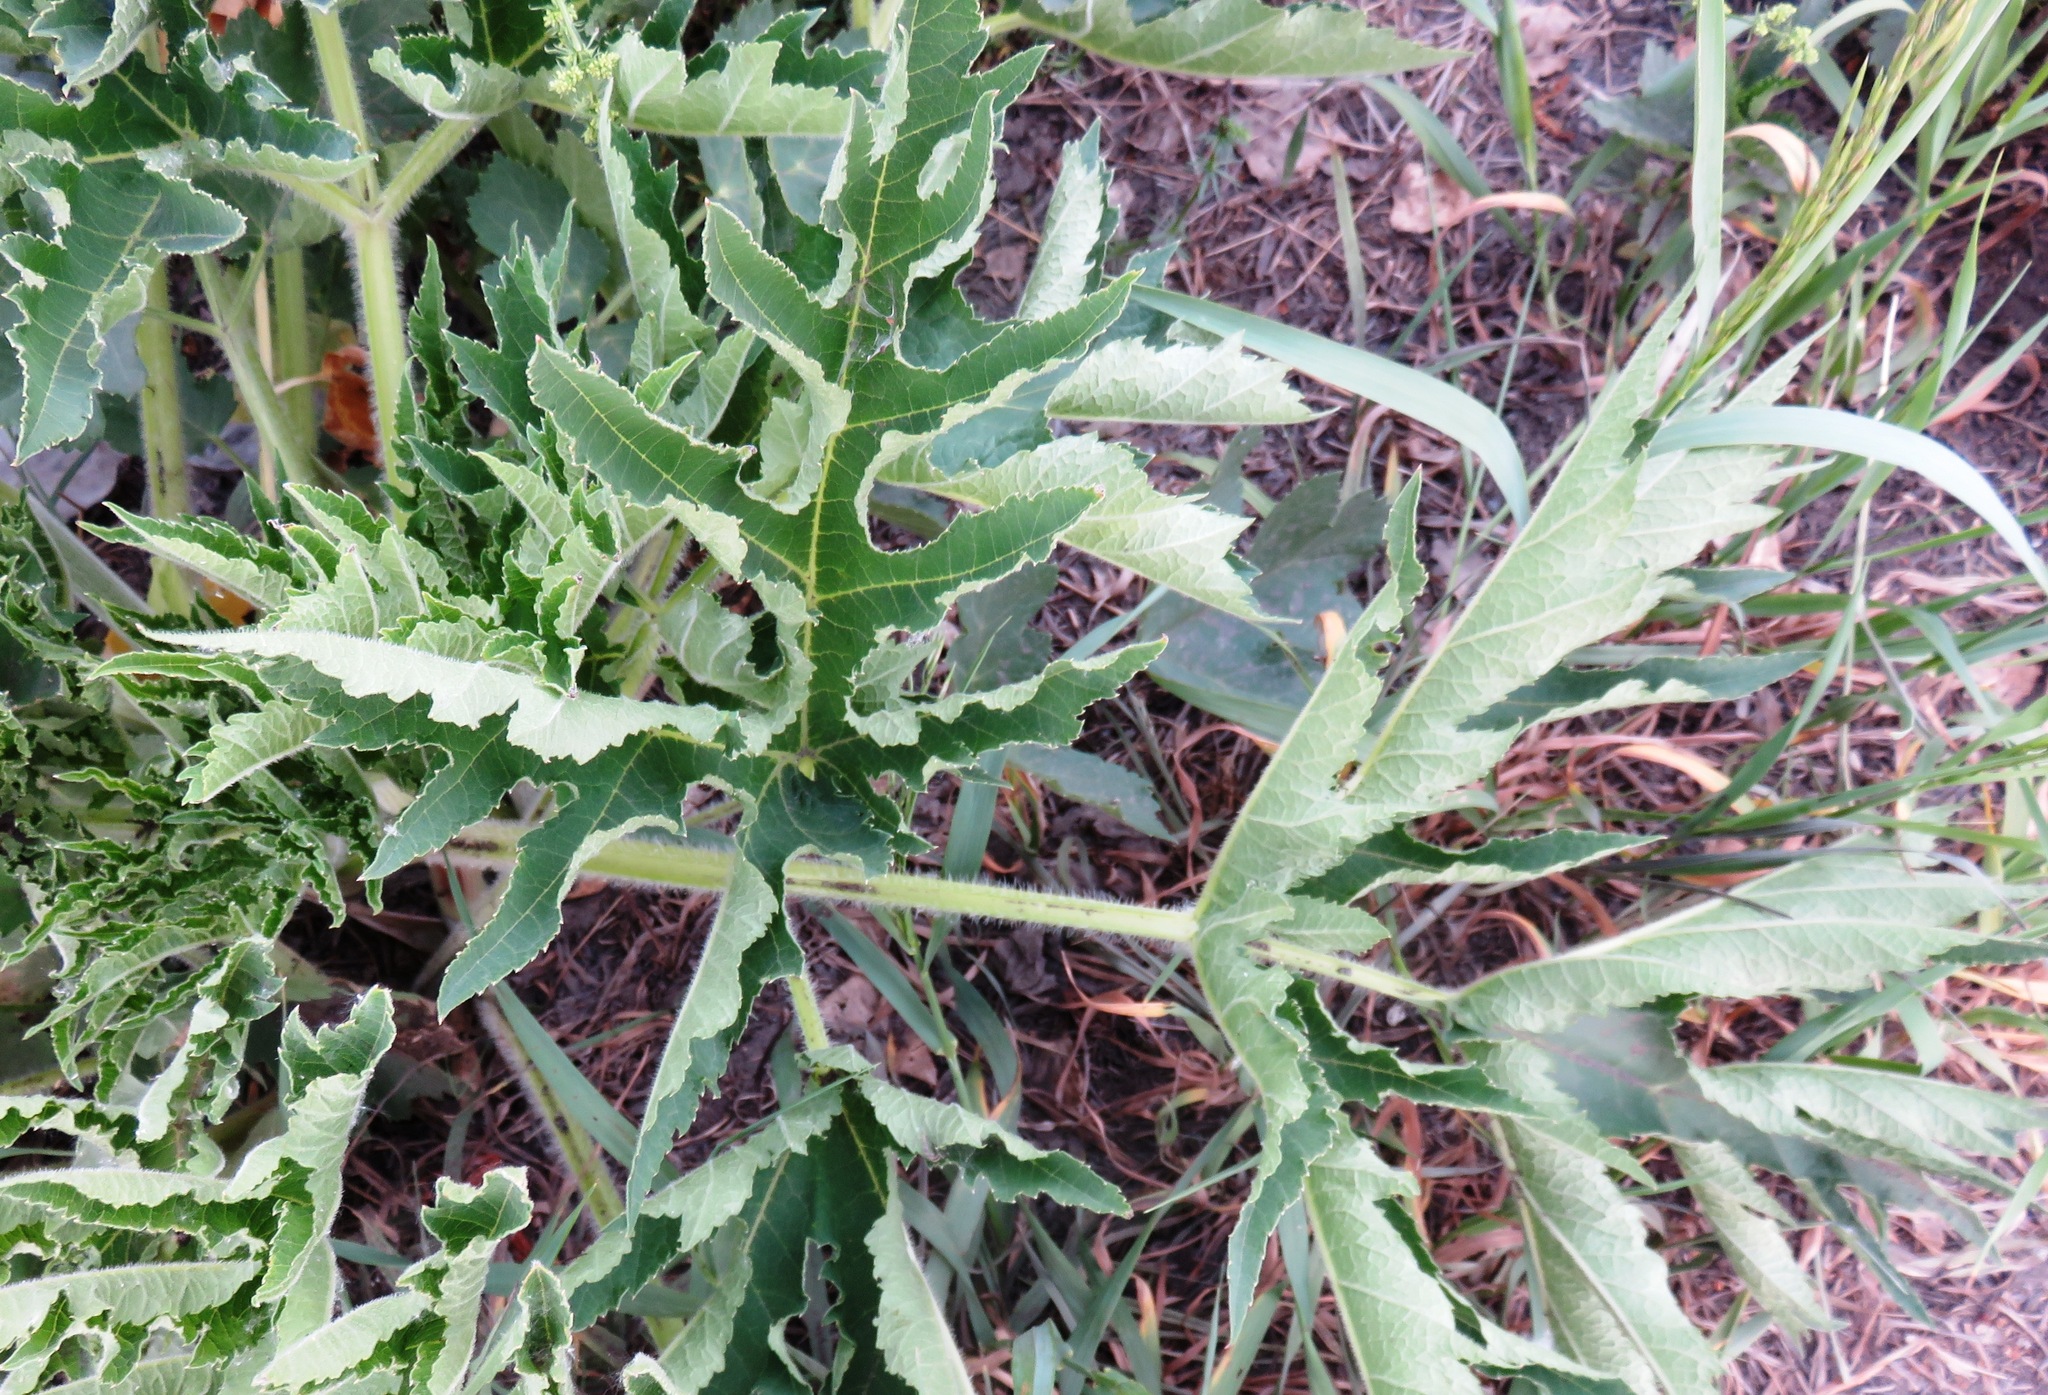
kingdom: Plantae
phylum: Tracheophyta
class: Magnoliopsida
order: Apiales
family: Apiaceae
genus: Heracleum
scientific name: Heracleum sphondylium
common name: Hogweed
